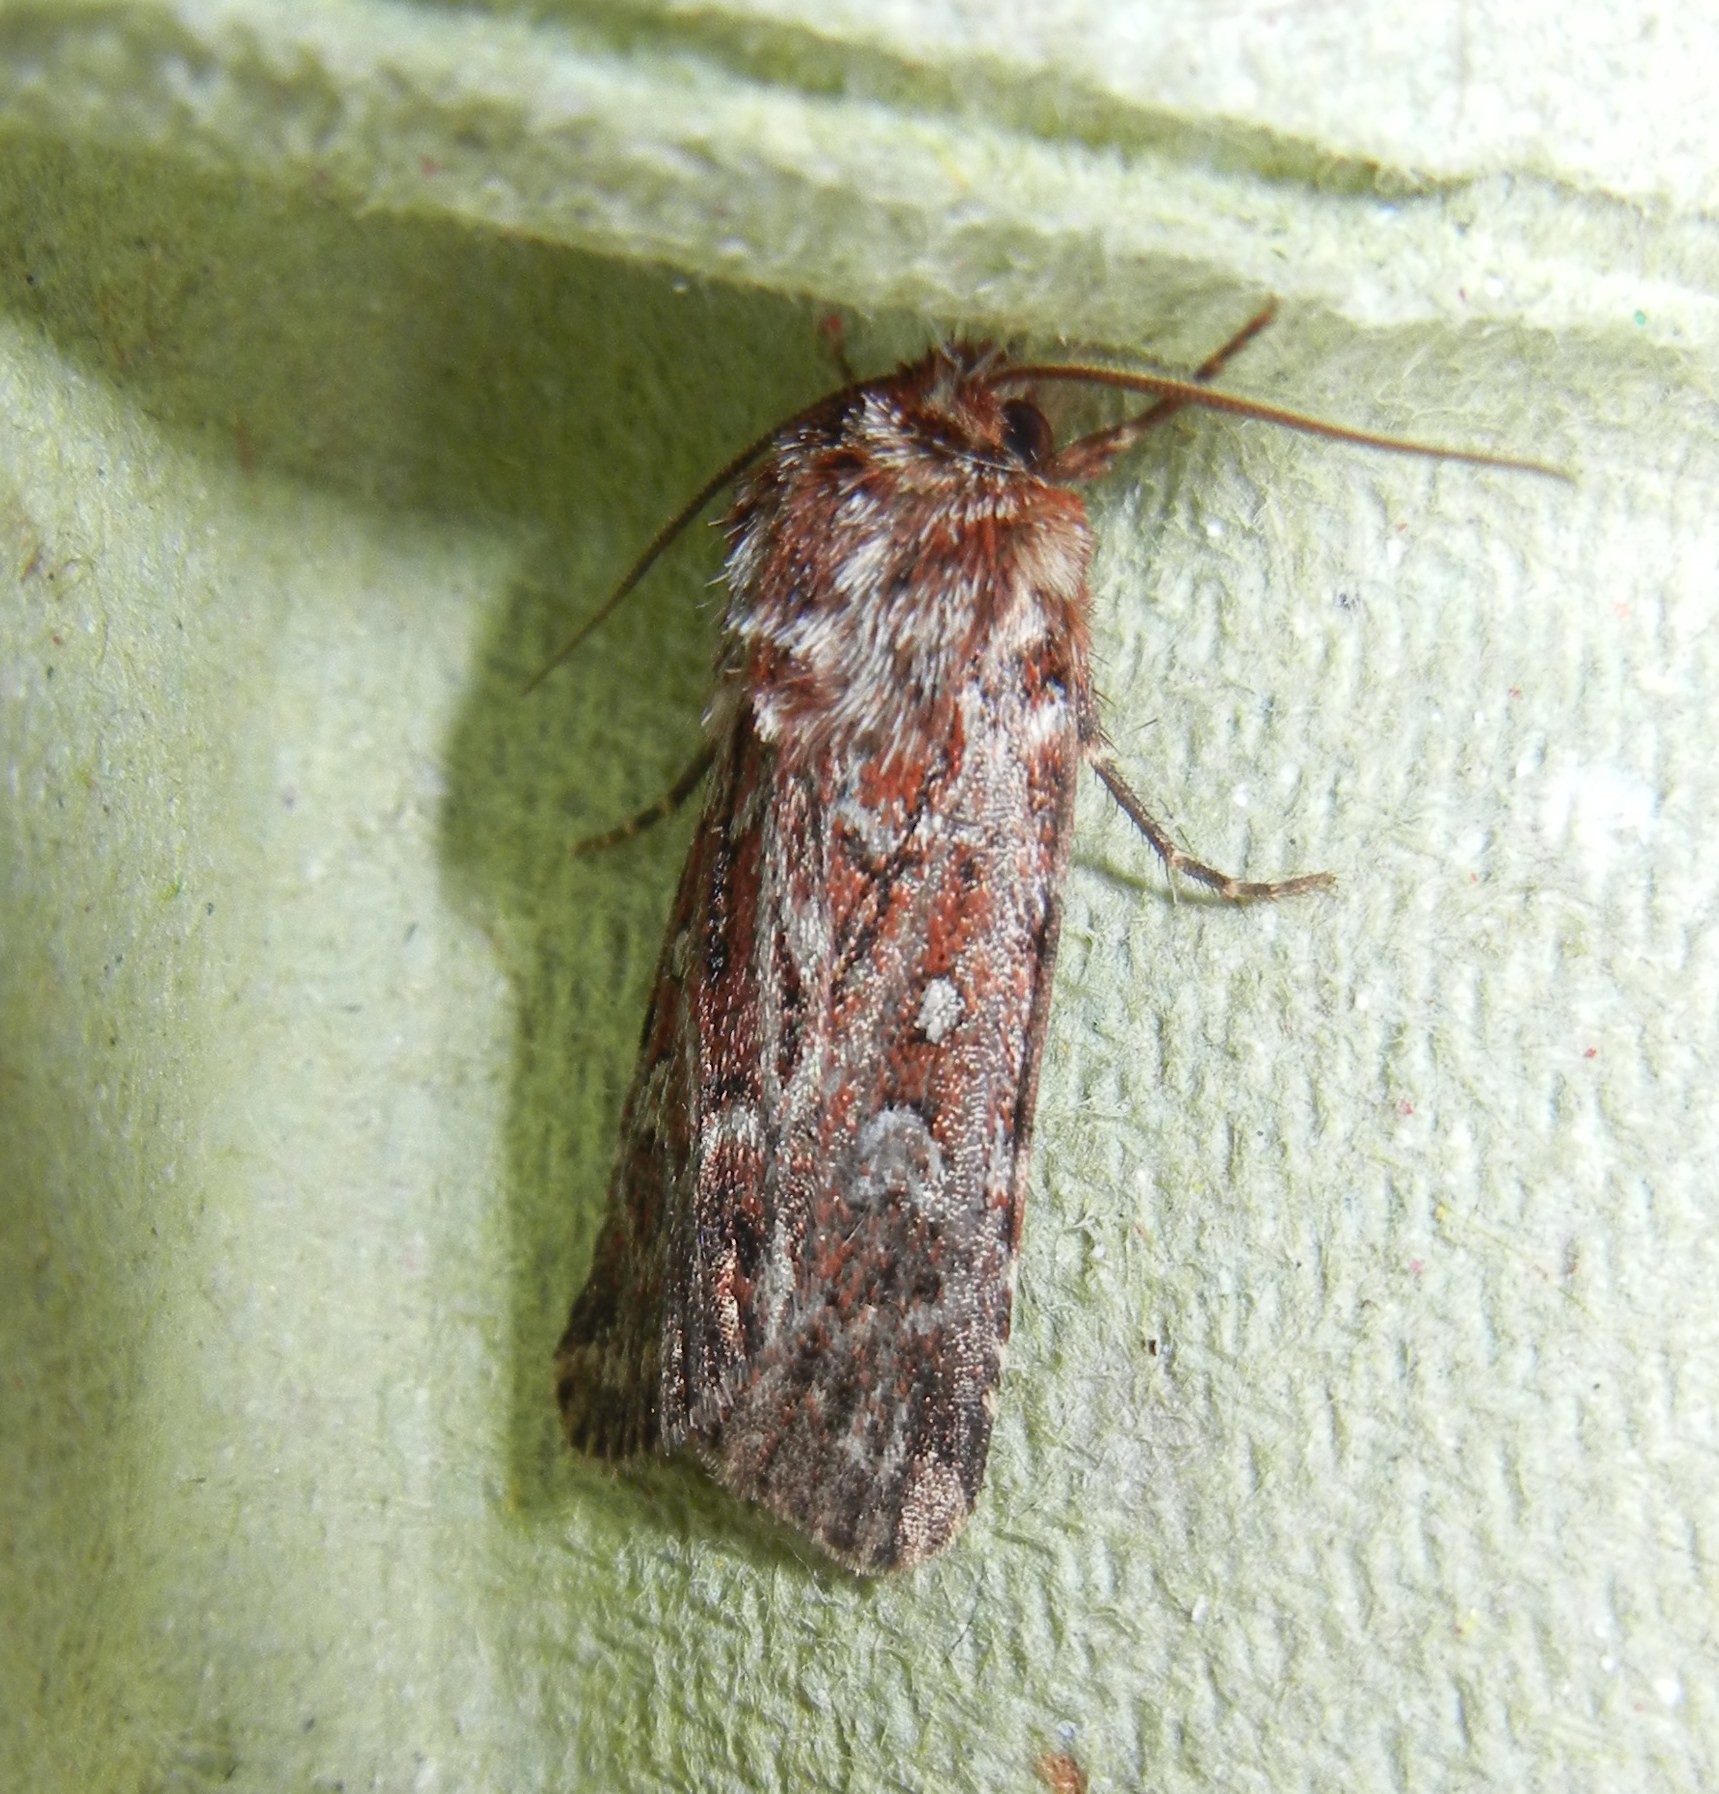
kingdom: Animalia
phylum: Arthropoda
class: Insecta
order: Lepidoptera
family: Noctuidae
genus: Lycophotia
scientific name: Lycophotia porphyrea
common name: True lover's knot
